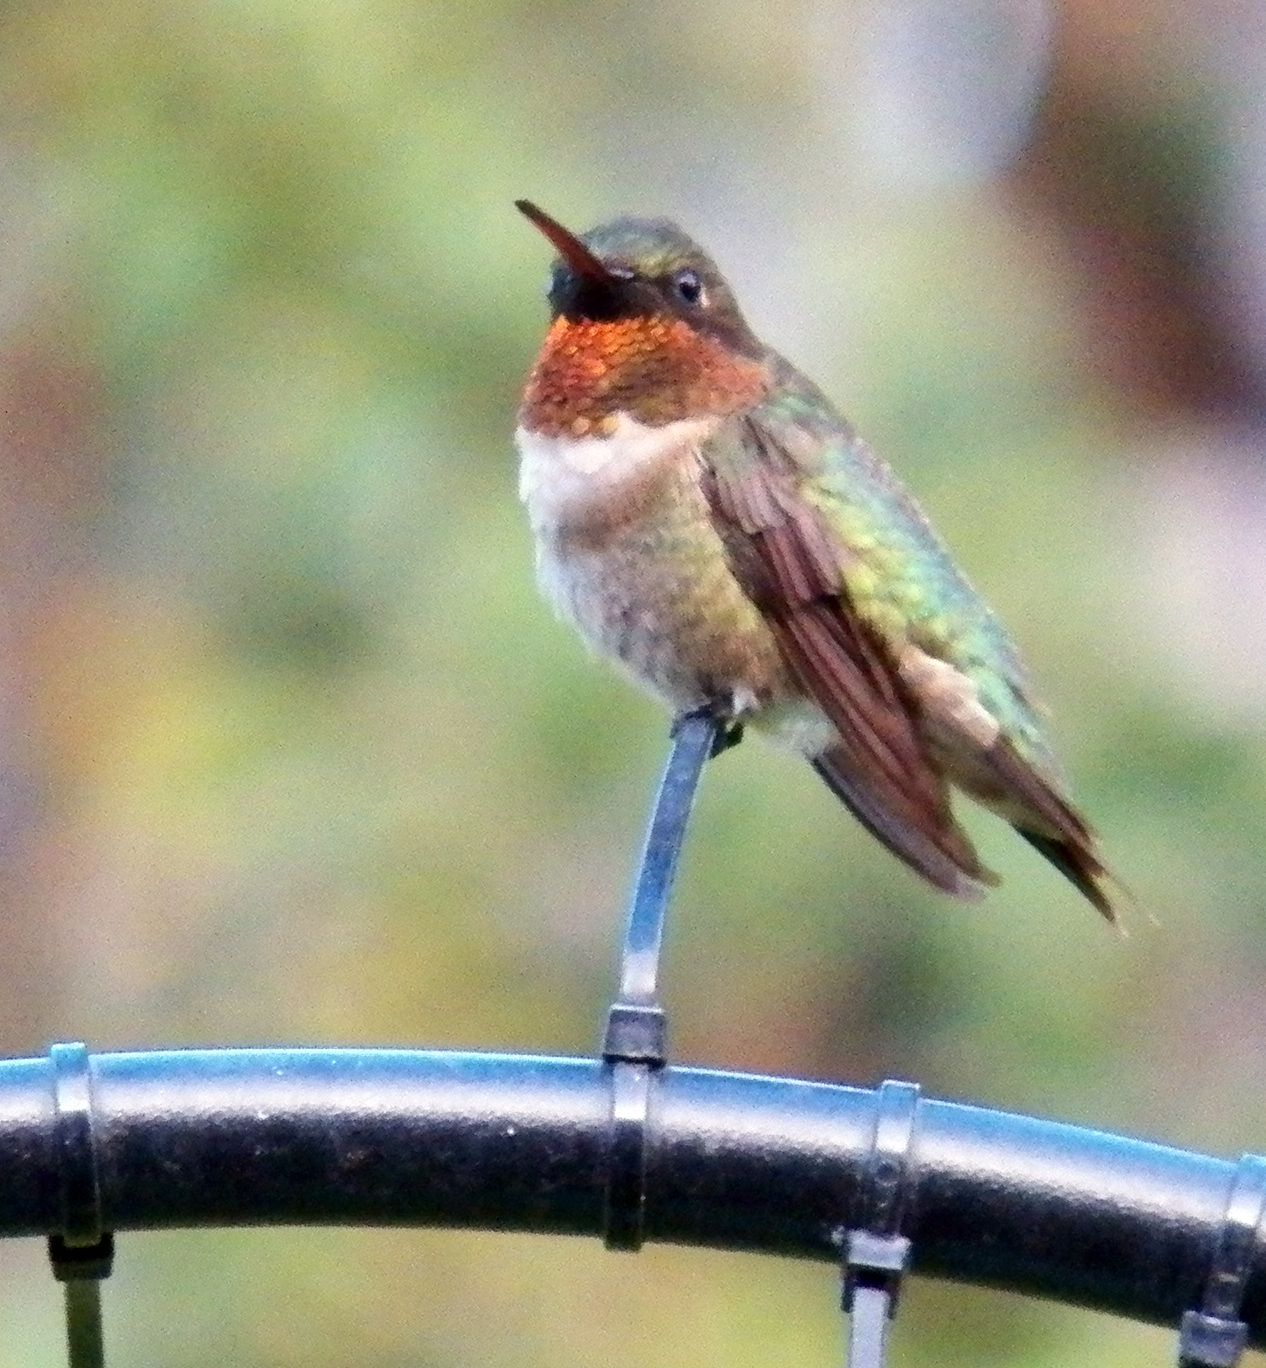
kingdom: Animalia
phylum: Chordata
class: Aves
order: Apodiformes
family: Trochilidae
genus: Archilochus
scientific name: Archilochus colubris
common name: Ruby-throated hummingbird
